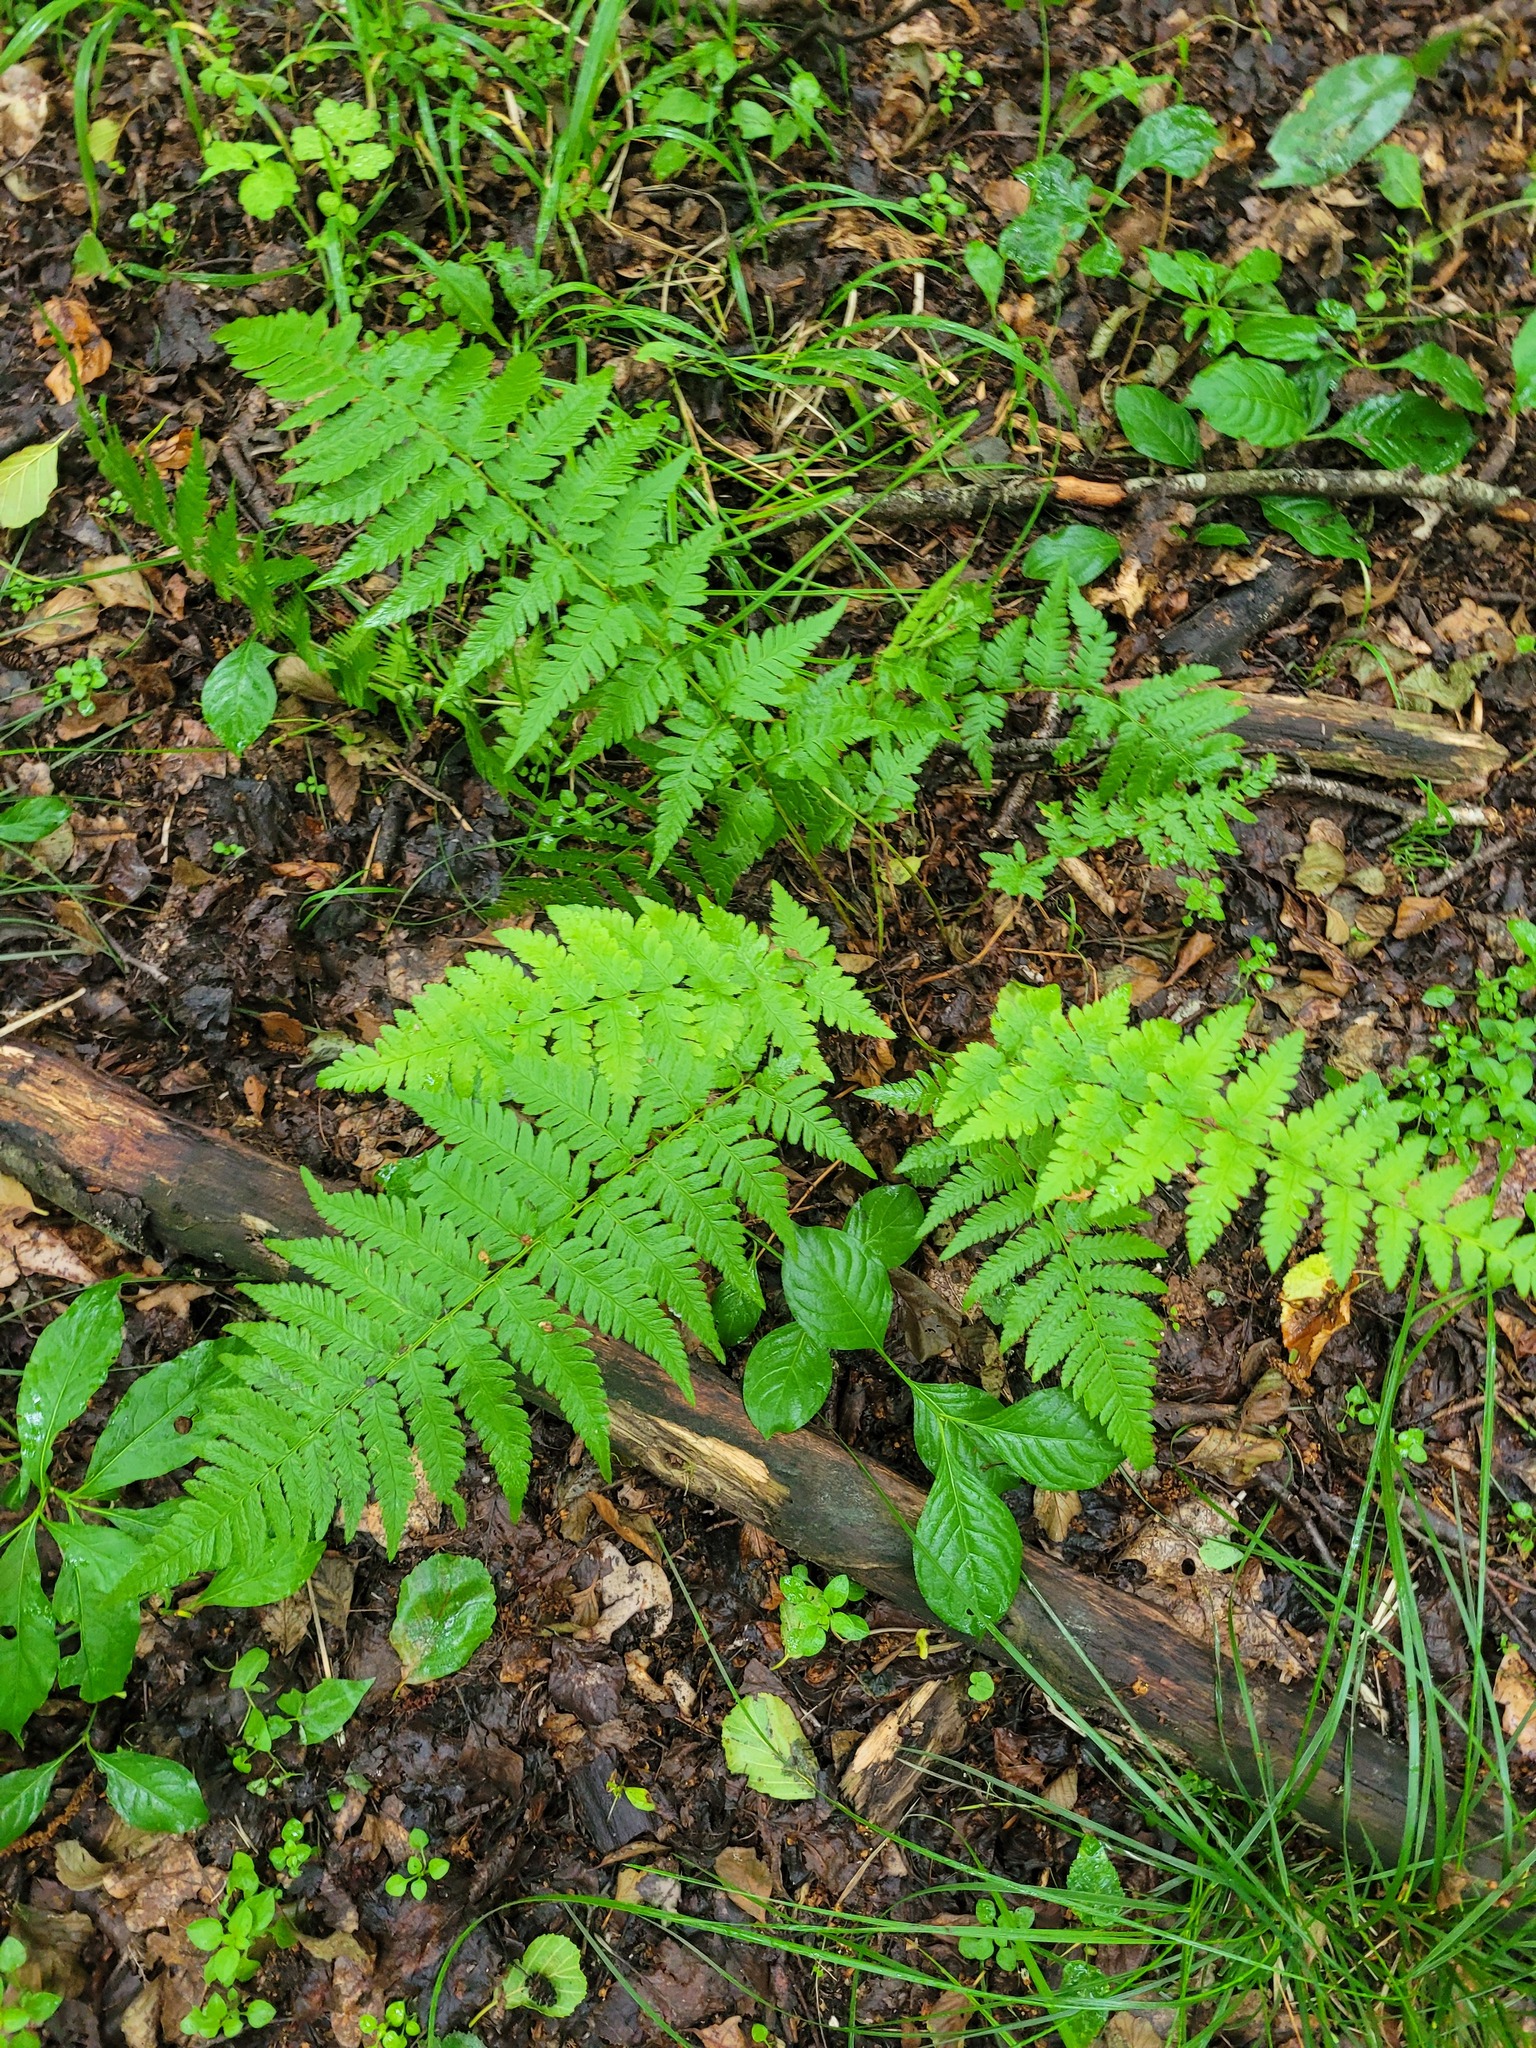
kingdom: Plantae
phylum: Tracheophyta
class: Polypodiopsida
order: Polypodiales
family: Dryopteridaceae
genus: Dryopteris
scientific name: Dryopteris carthusiana
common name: Narrow buckler-fern
